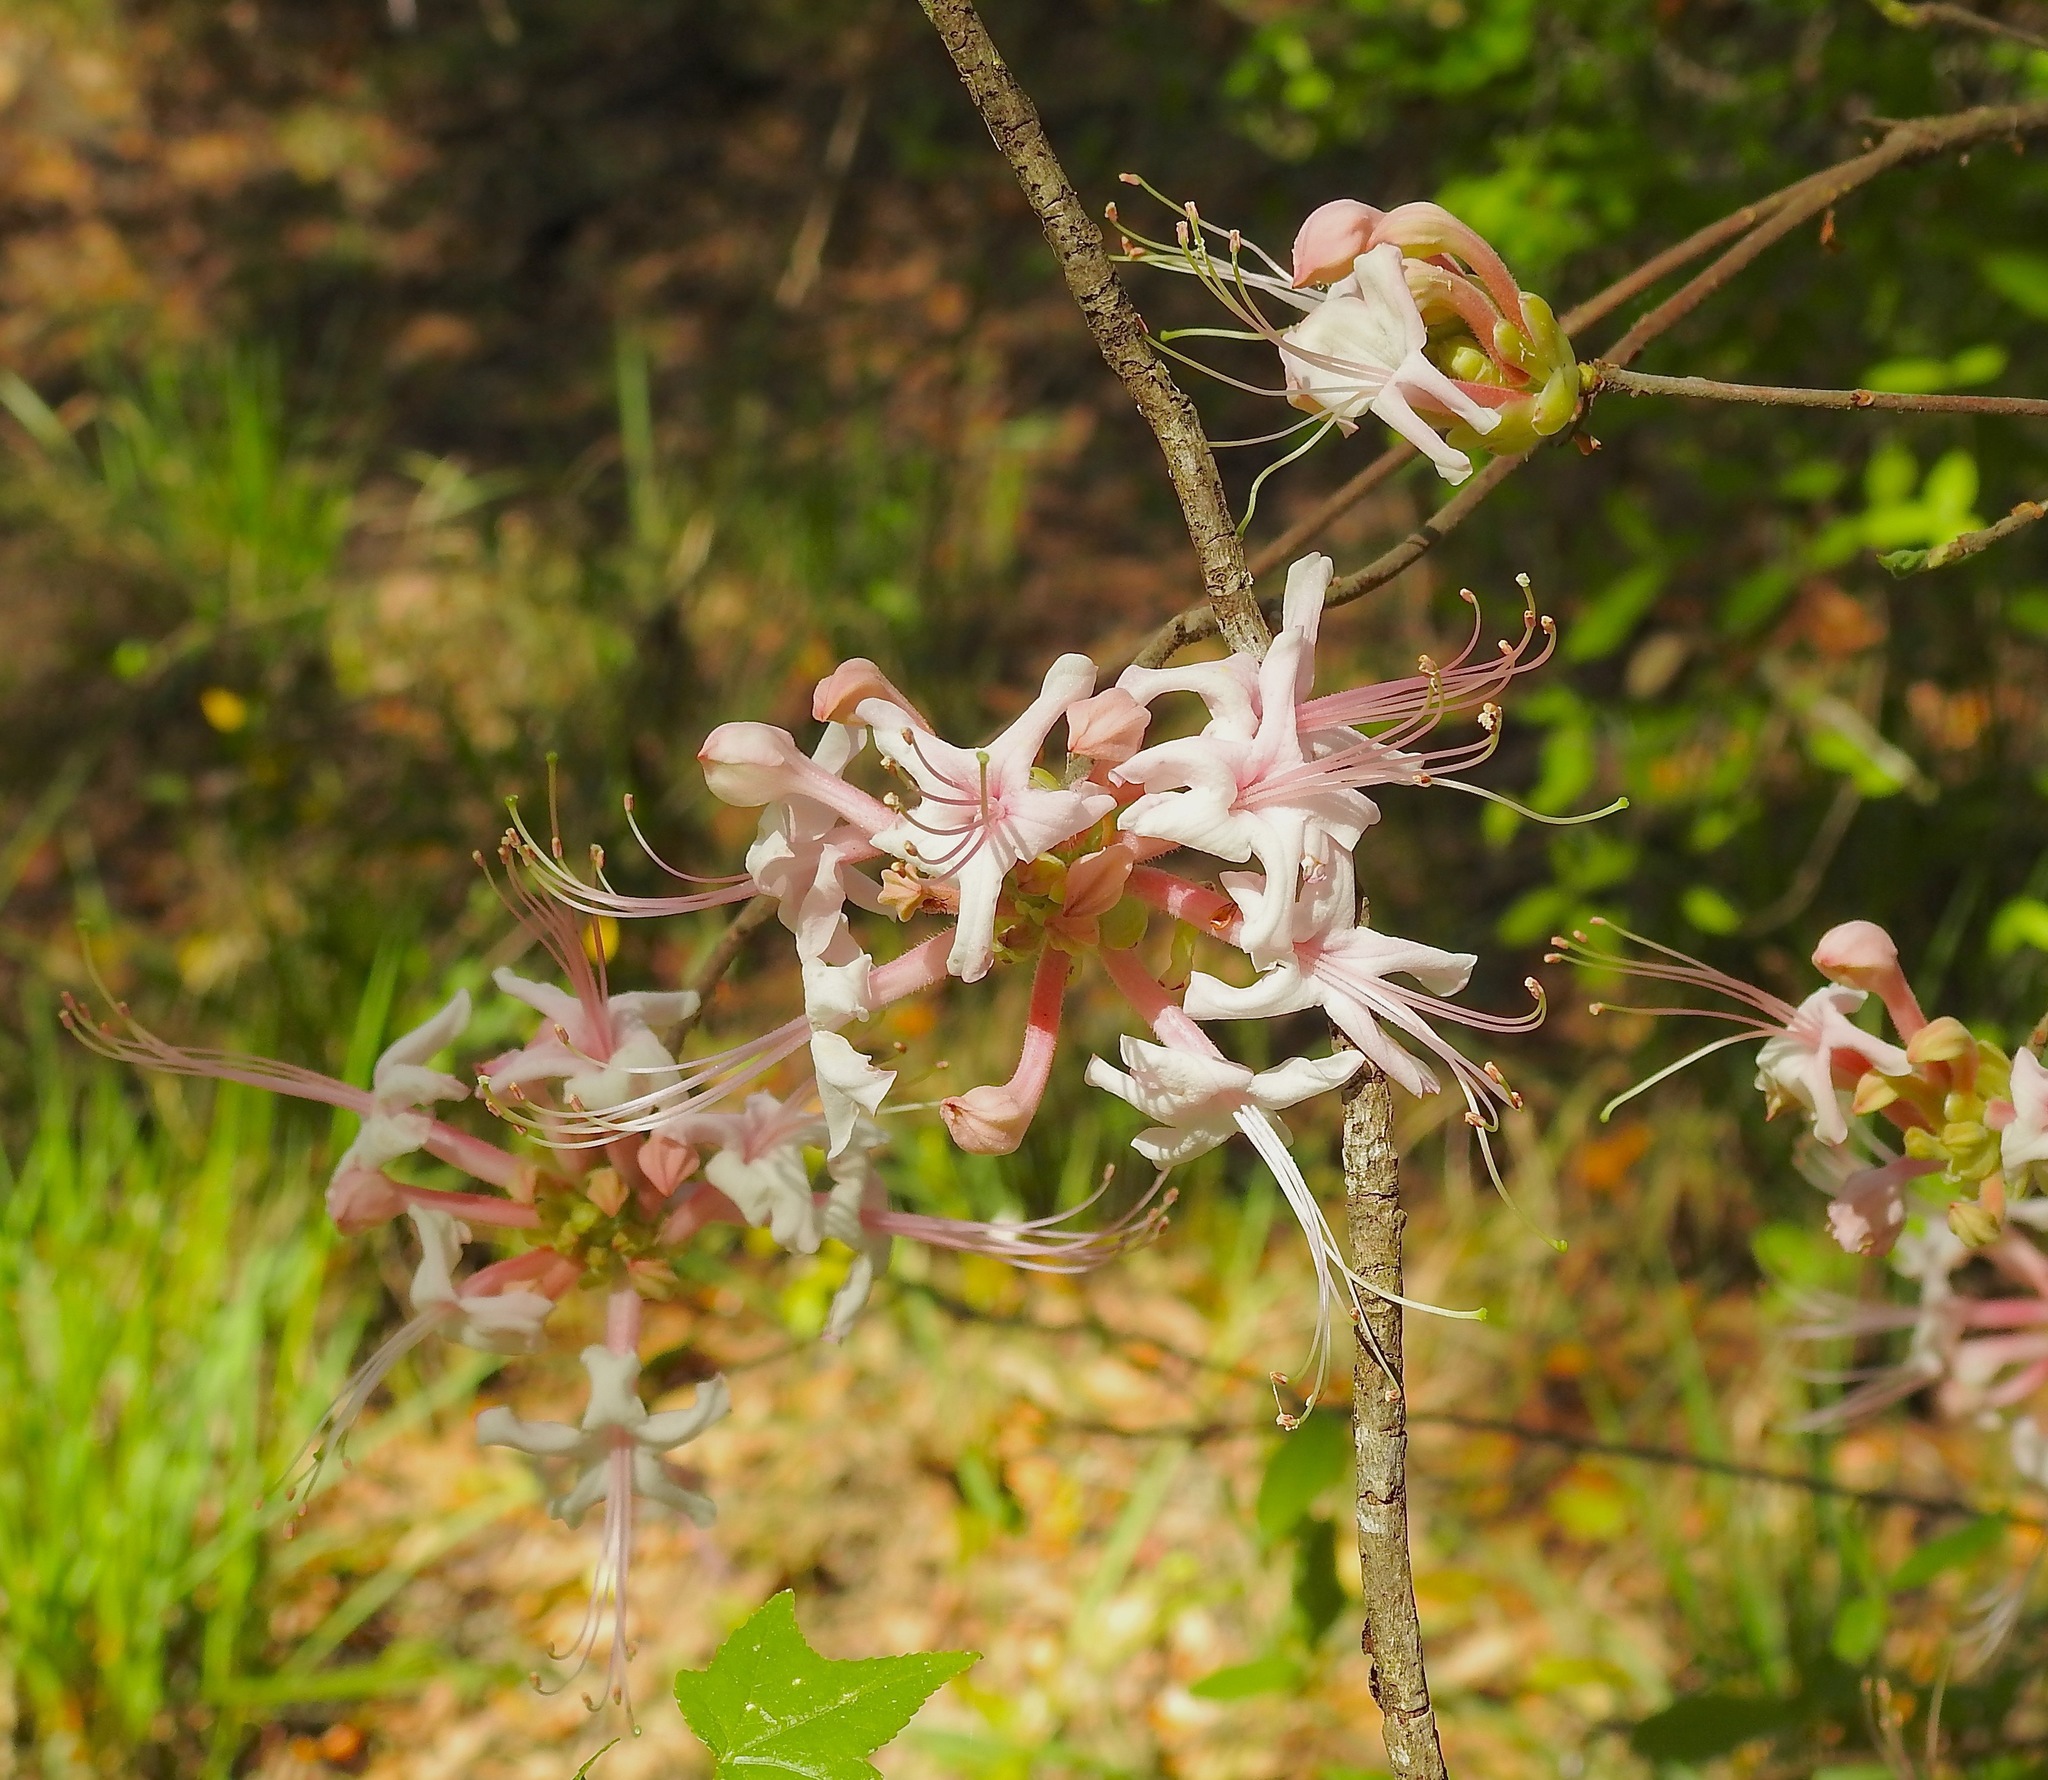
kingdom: Plantae
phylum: Tracheophyta
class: Magnoliopsida
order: Ericales
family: Ericaceae
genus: Rhododendron
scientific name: Rhododendron canescens
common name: Mountain azalea
